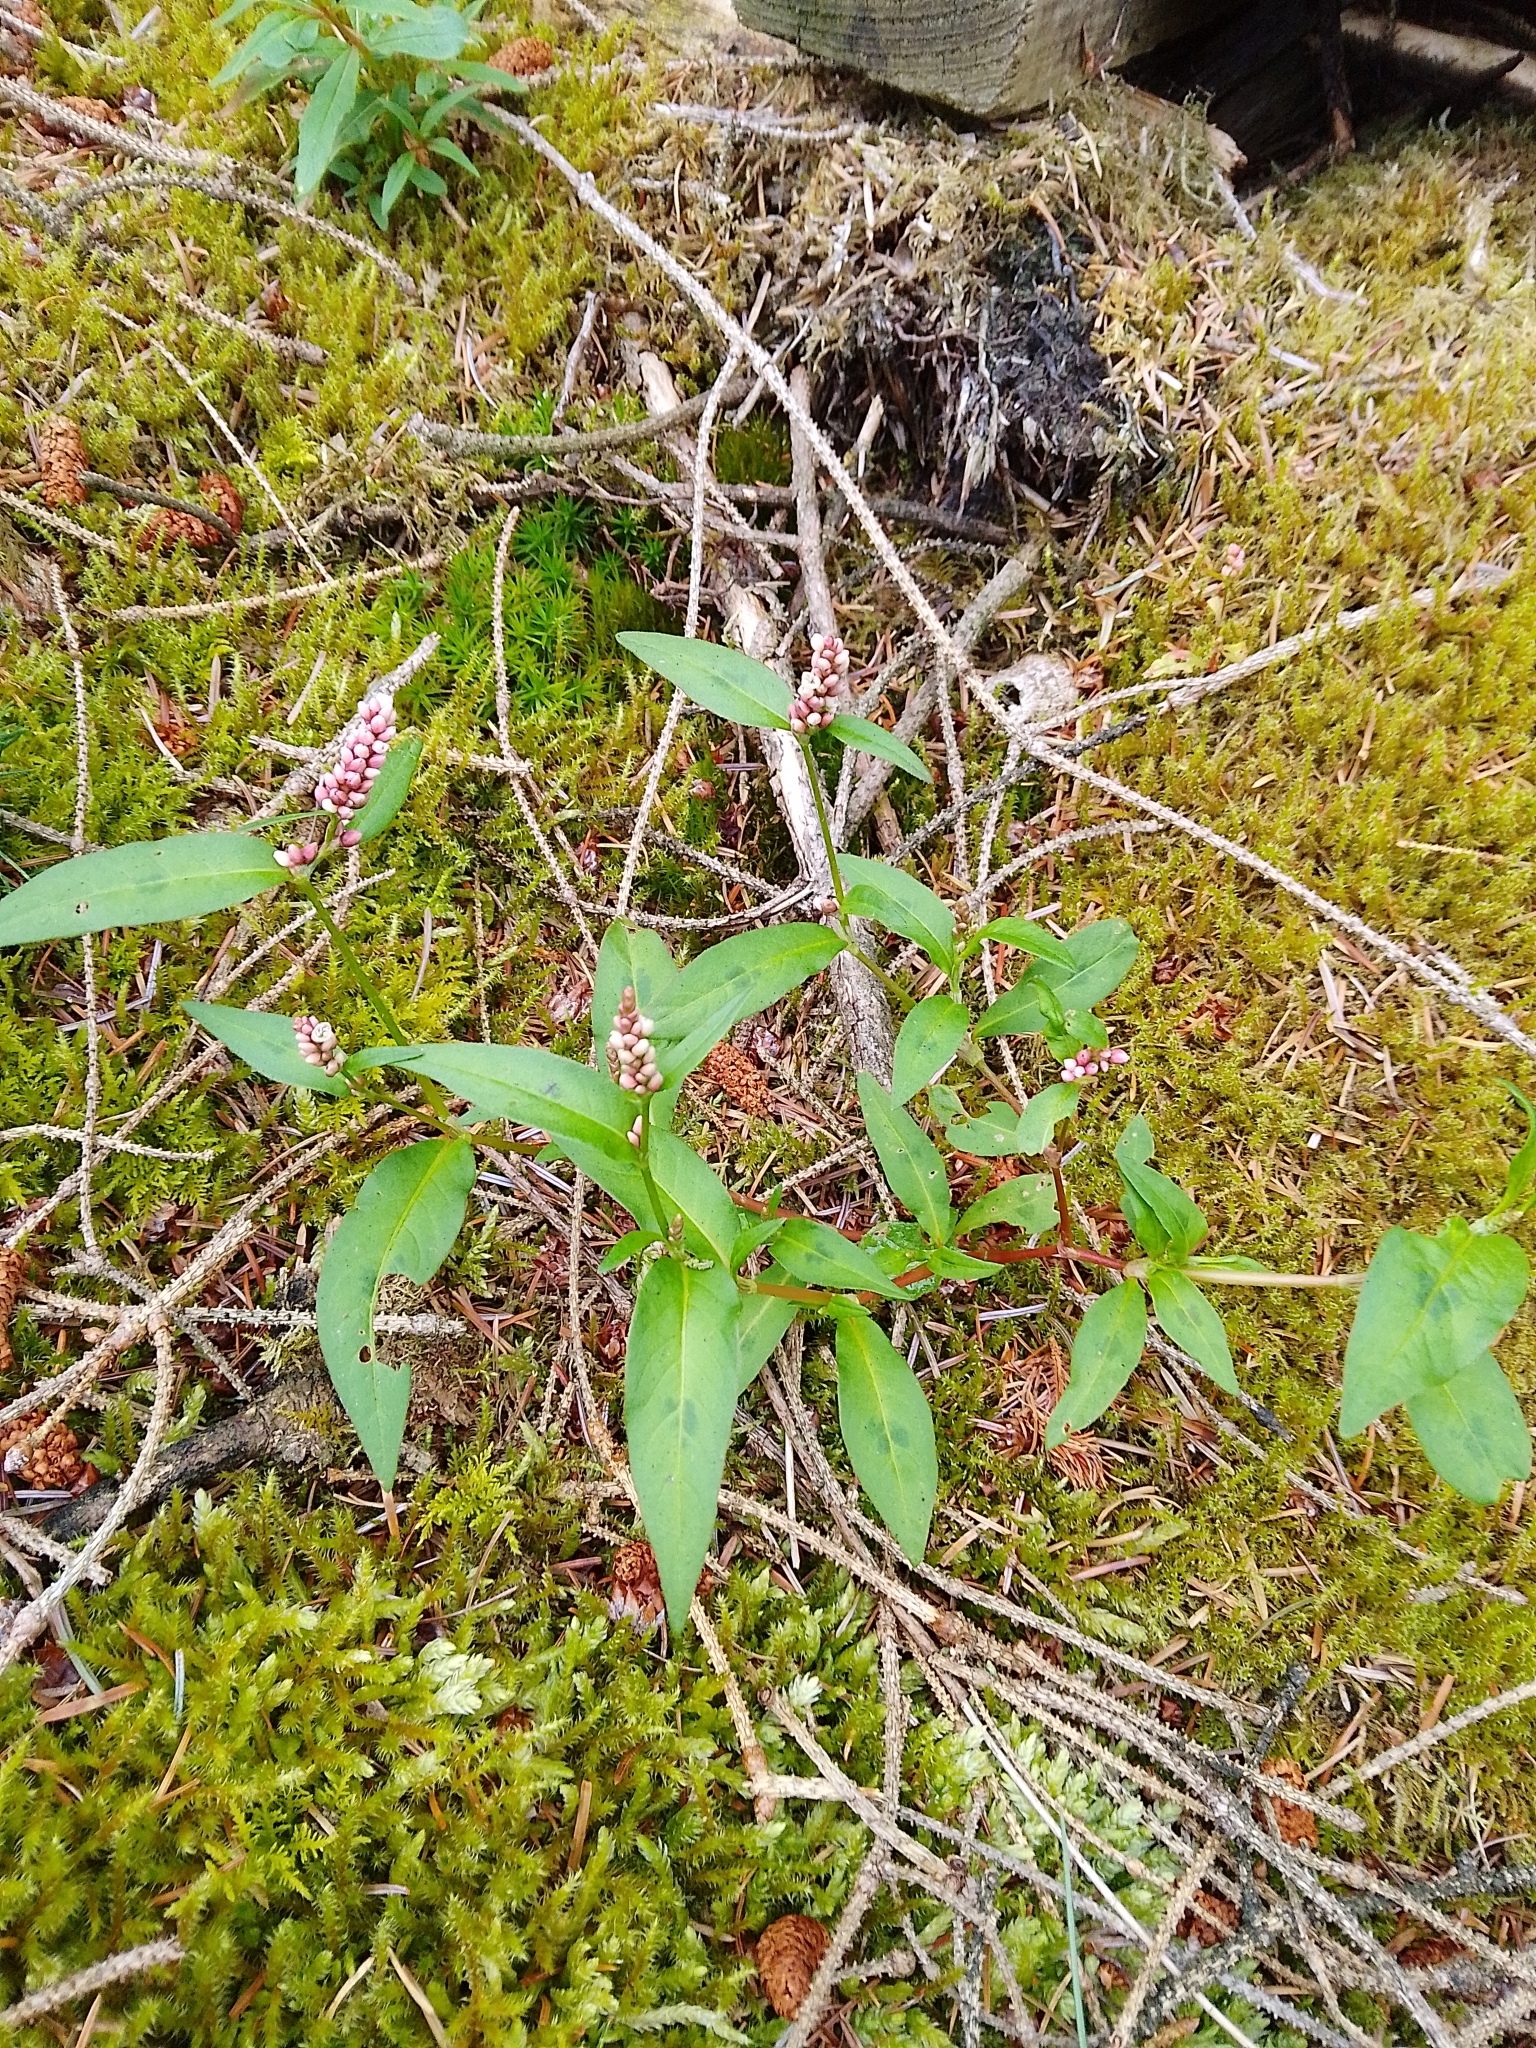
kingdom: Plantae
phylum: Tracheophyta
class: Magnoliopsida
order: Caryophyllales
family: Polygonaceae
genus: Persicaria
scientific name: Persicaria maculosa
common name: Redshank
